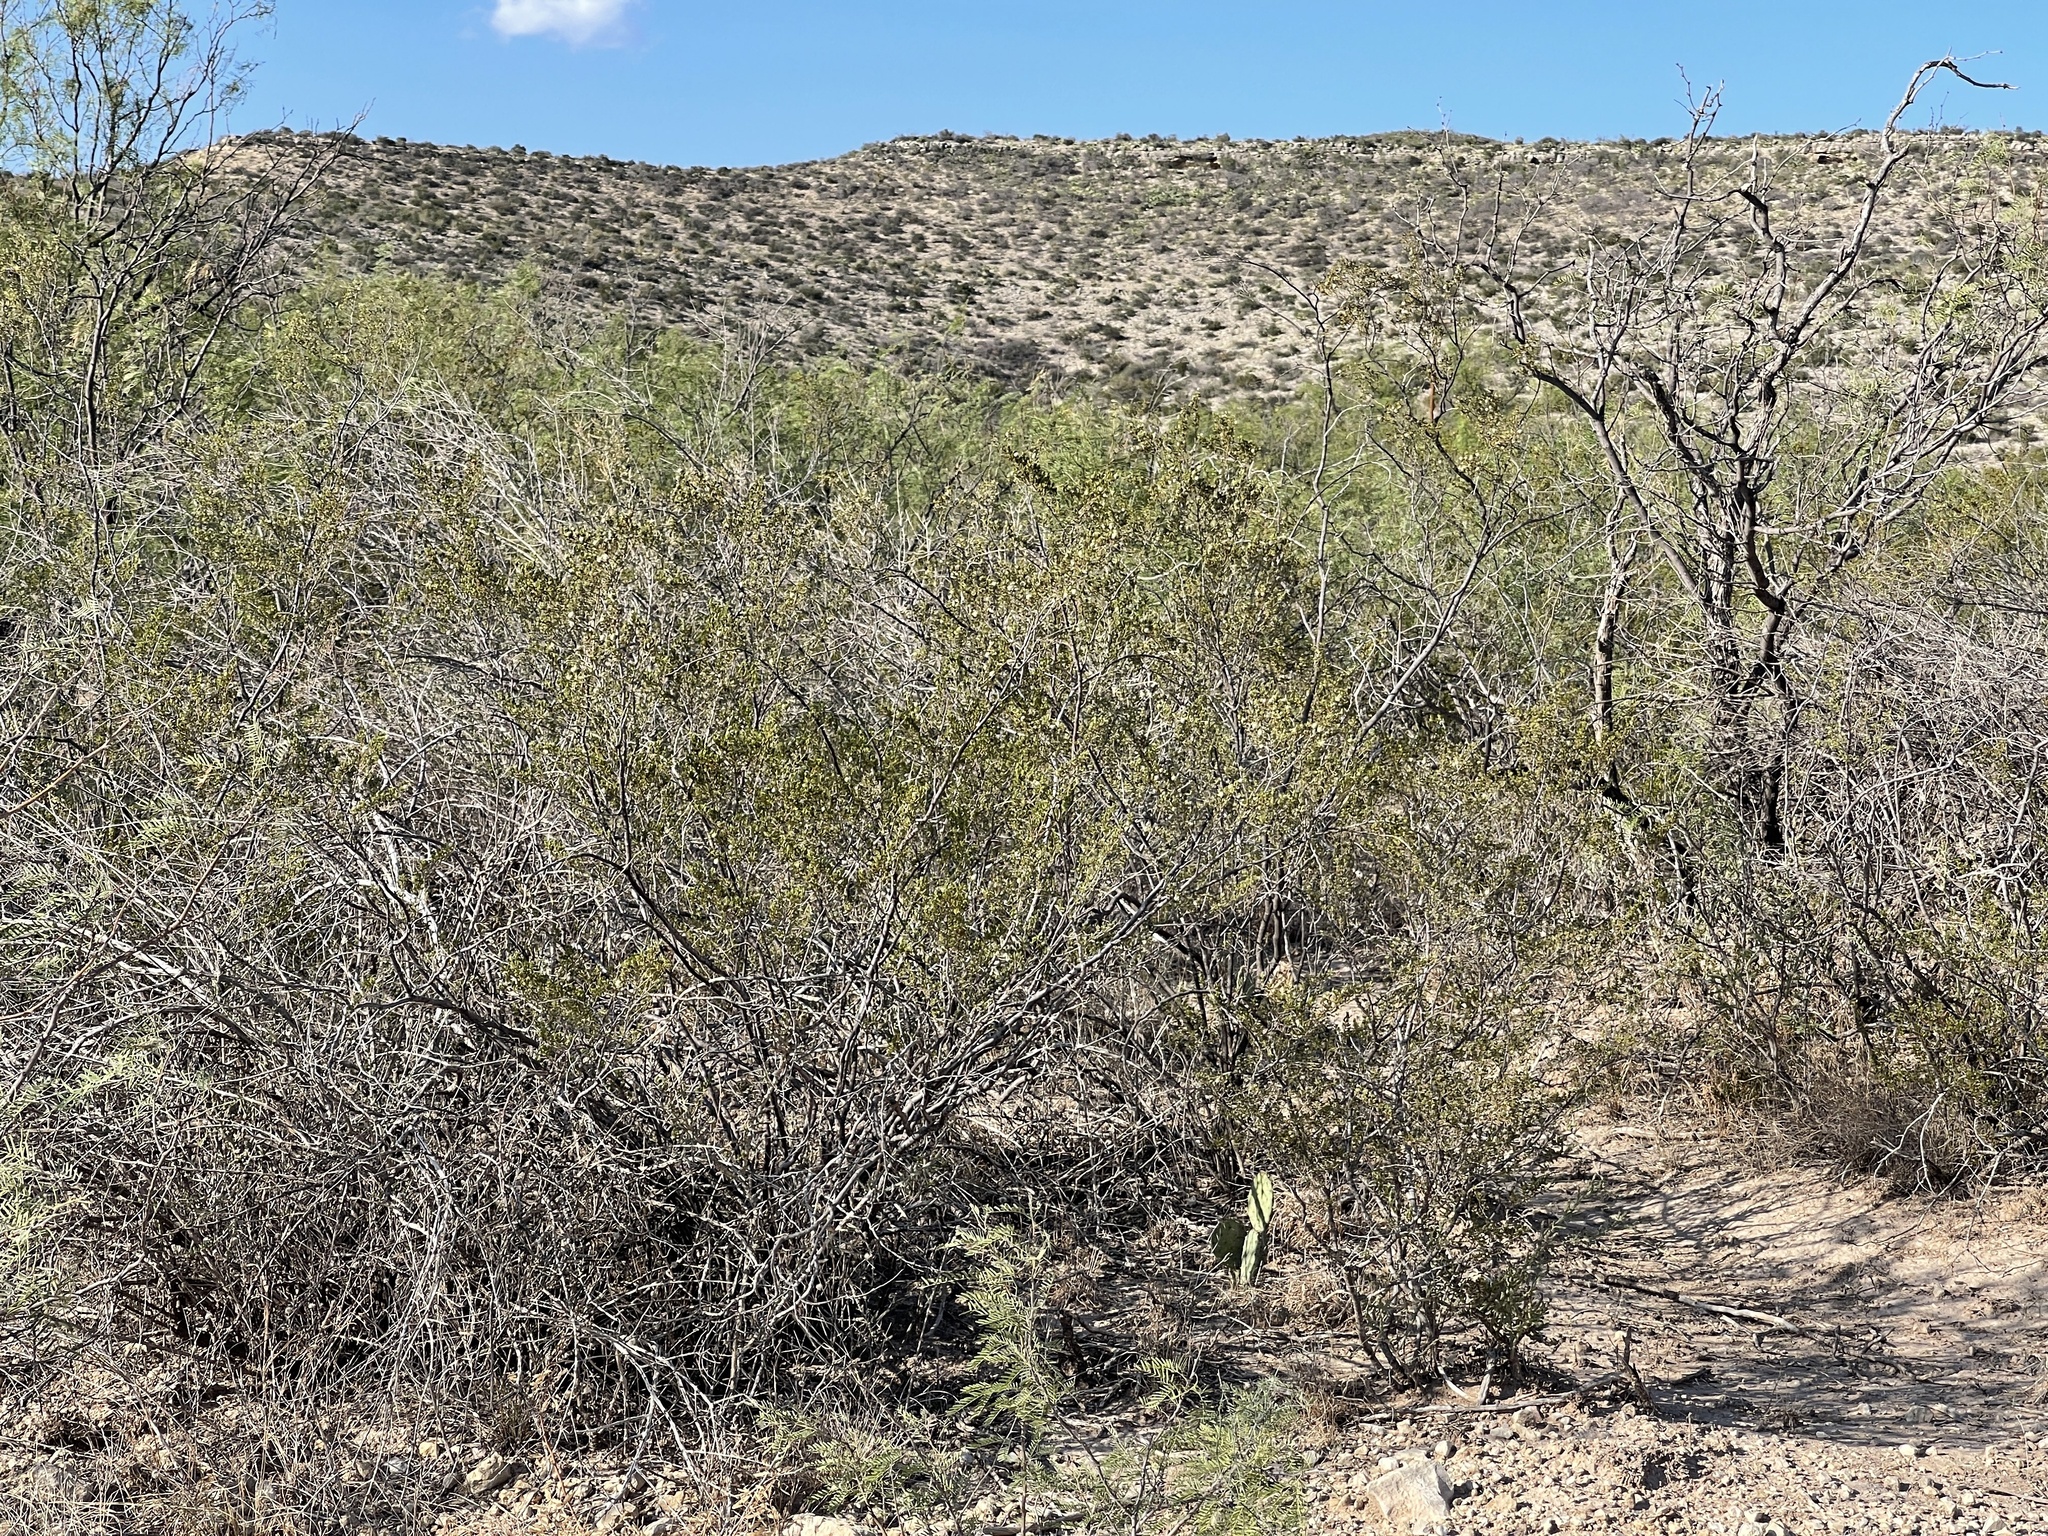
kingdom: Plantae
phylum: Tracheophyta
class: Magnoliopsida
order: Zygophyllales
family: Zygophyllaceae
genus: Larrea
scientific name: Larrea tridentata
